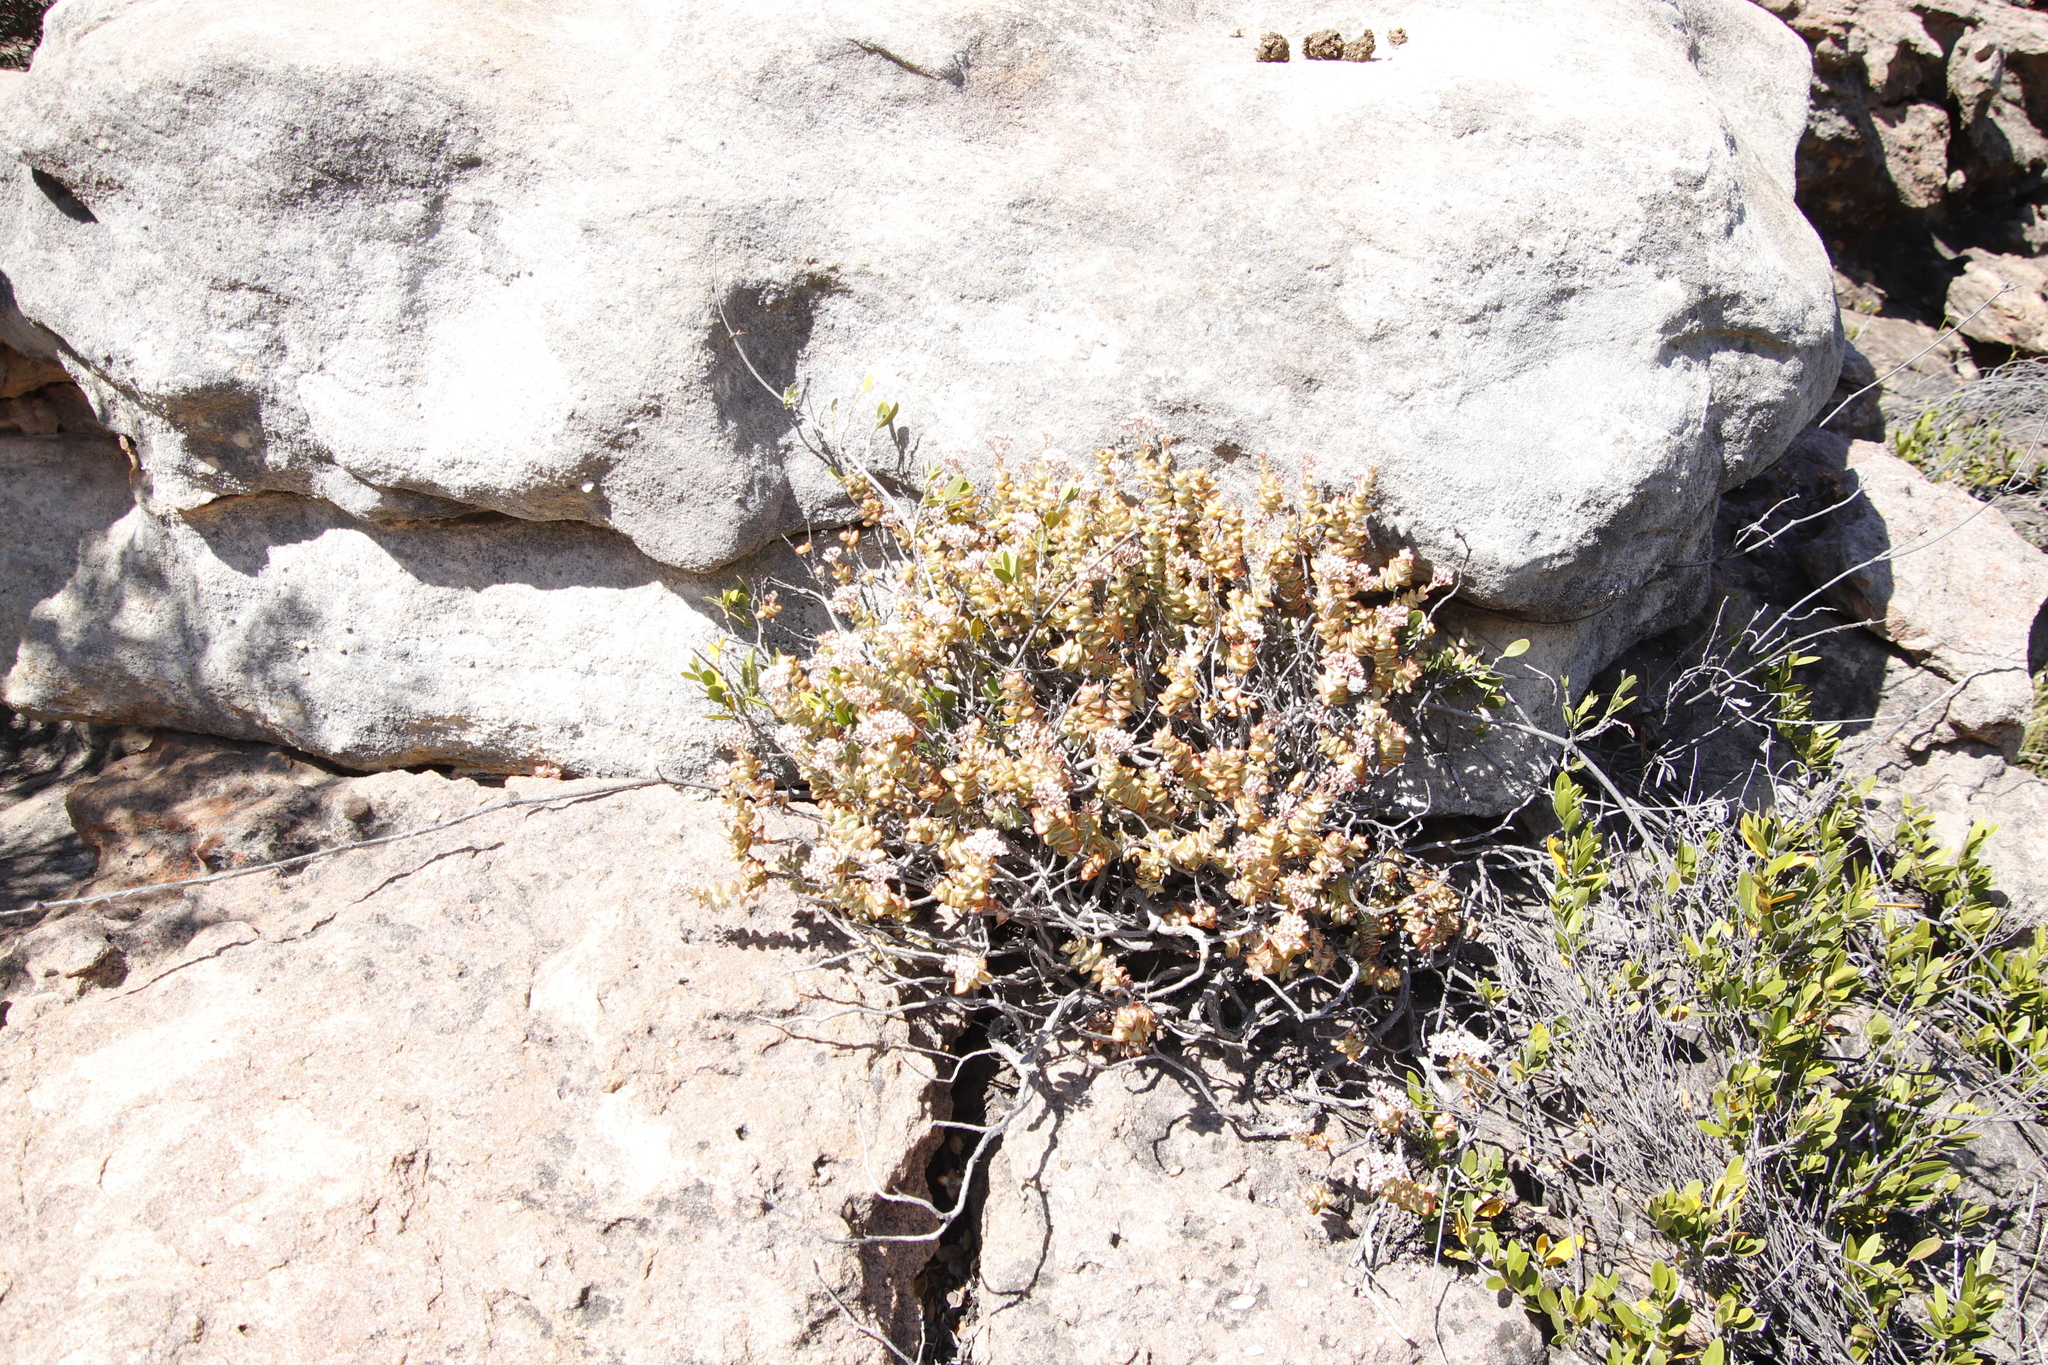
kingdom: Plantae
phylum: Tracheophyta
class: Magnoliopsida
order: Saxifragales
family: Crassulaceae
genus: Crassula
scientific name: Crassula rupestris
